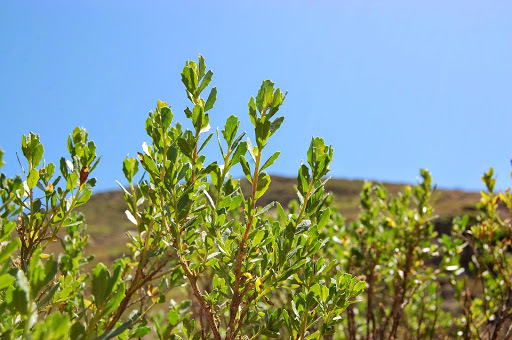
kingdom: Plantae
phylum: Tracheophyta
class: Magnoliopsida
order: Asterales
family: Asteraceae
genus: Baccharis
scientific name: Baccharis pilularis
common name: Coyotebrush
